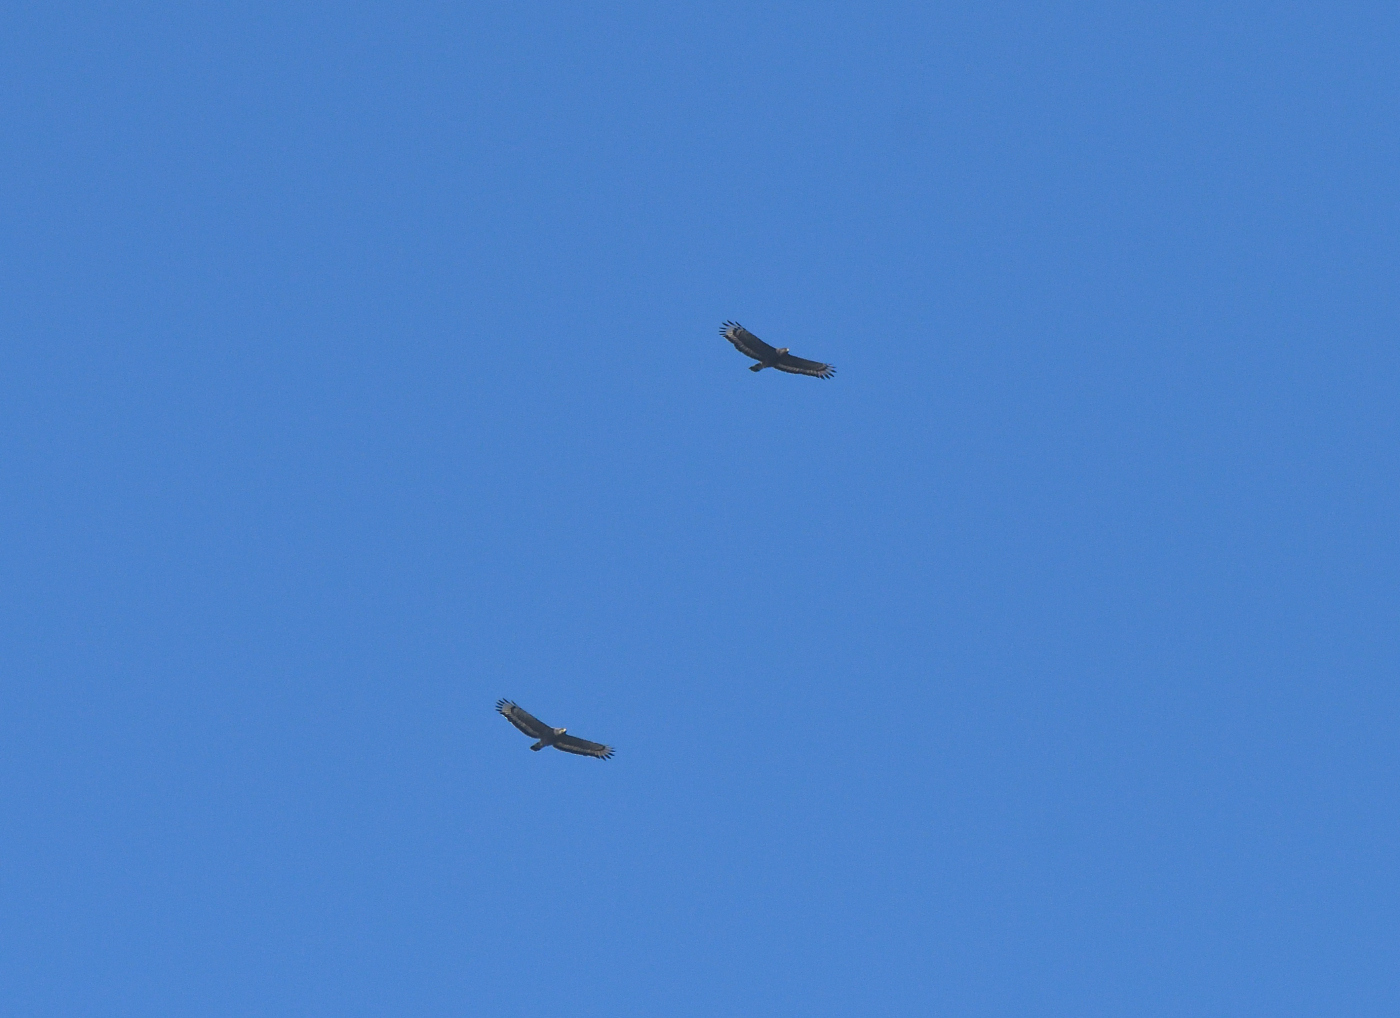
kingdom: Animalia
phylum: Chordata
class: Aves
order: Accipitriformes
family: Accipitridae
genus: Spilornis
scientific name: Spilornis cheela
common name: Crested serpent eagle
